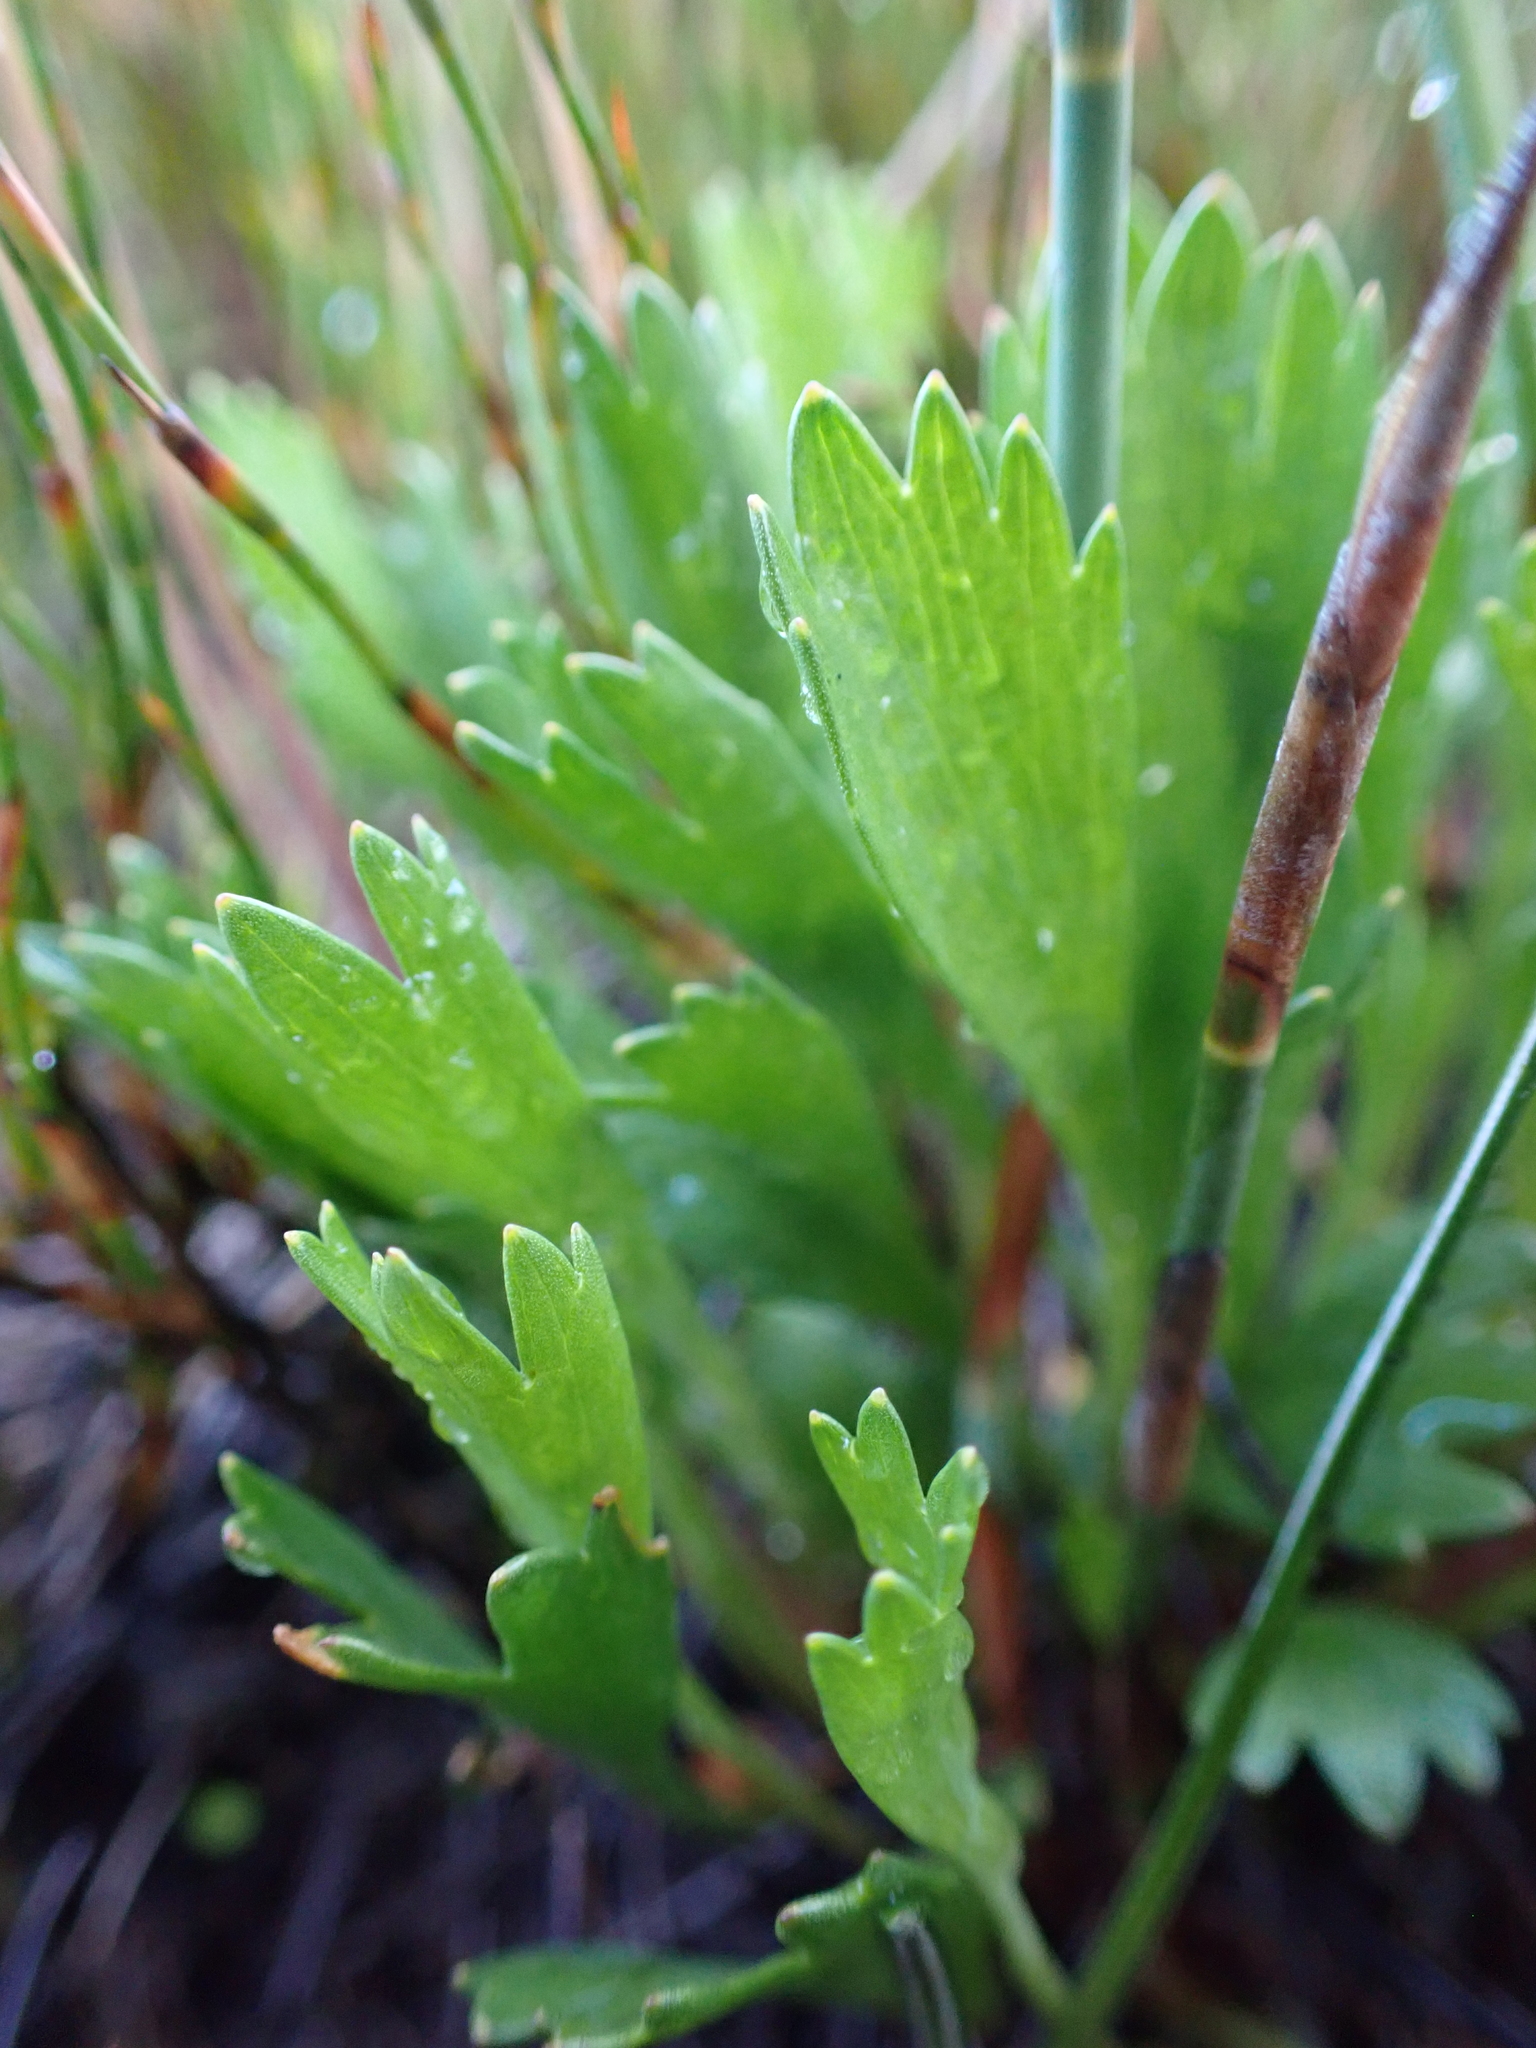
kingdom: Plantae
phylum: Tracheophyta
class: Magnoliopsida
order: Apiales
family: Apiaceae
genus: Oschatzia
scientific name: Oschatzia cuneifolia
